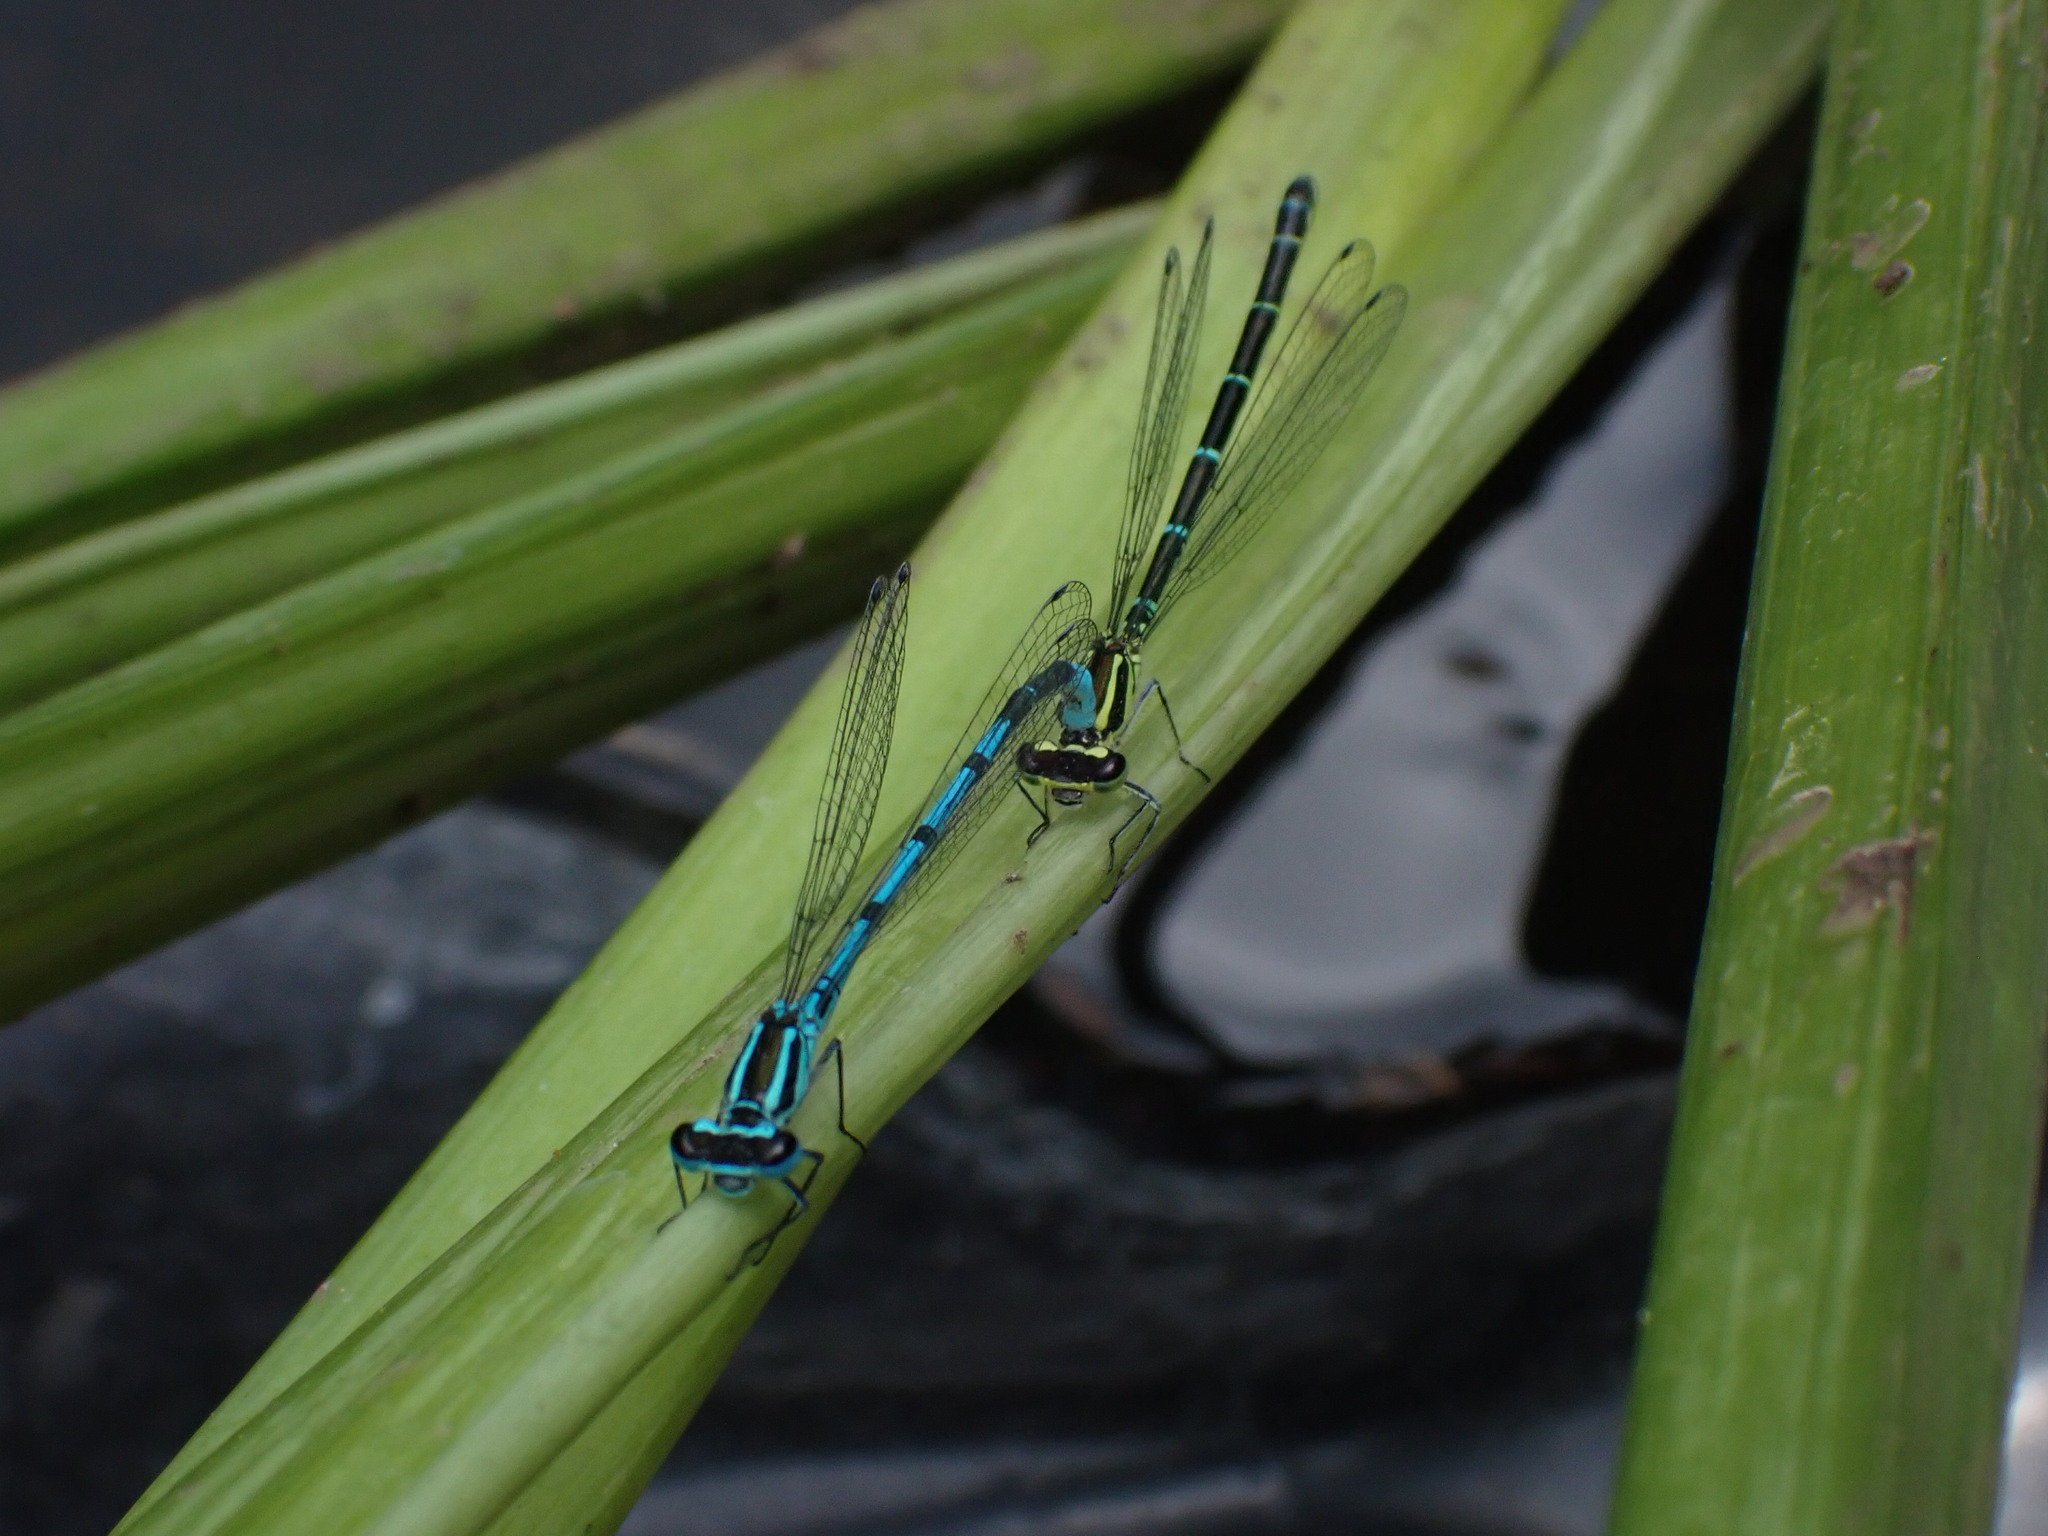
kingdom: Animalia
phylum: Arthropoda
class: Insecta
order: Odonata
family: Coenagrionidae
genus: Coenagrion
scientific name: Coenagrion puella
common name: Azure damselfly
